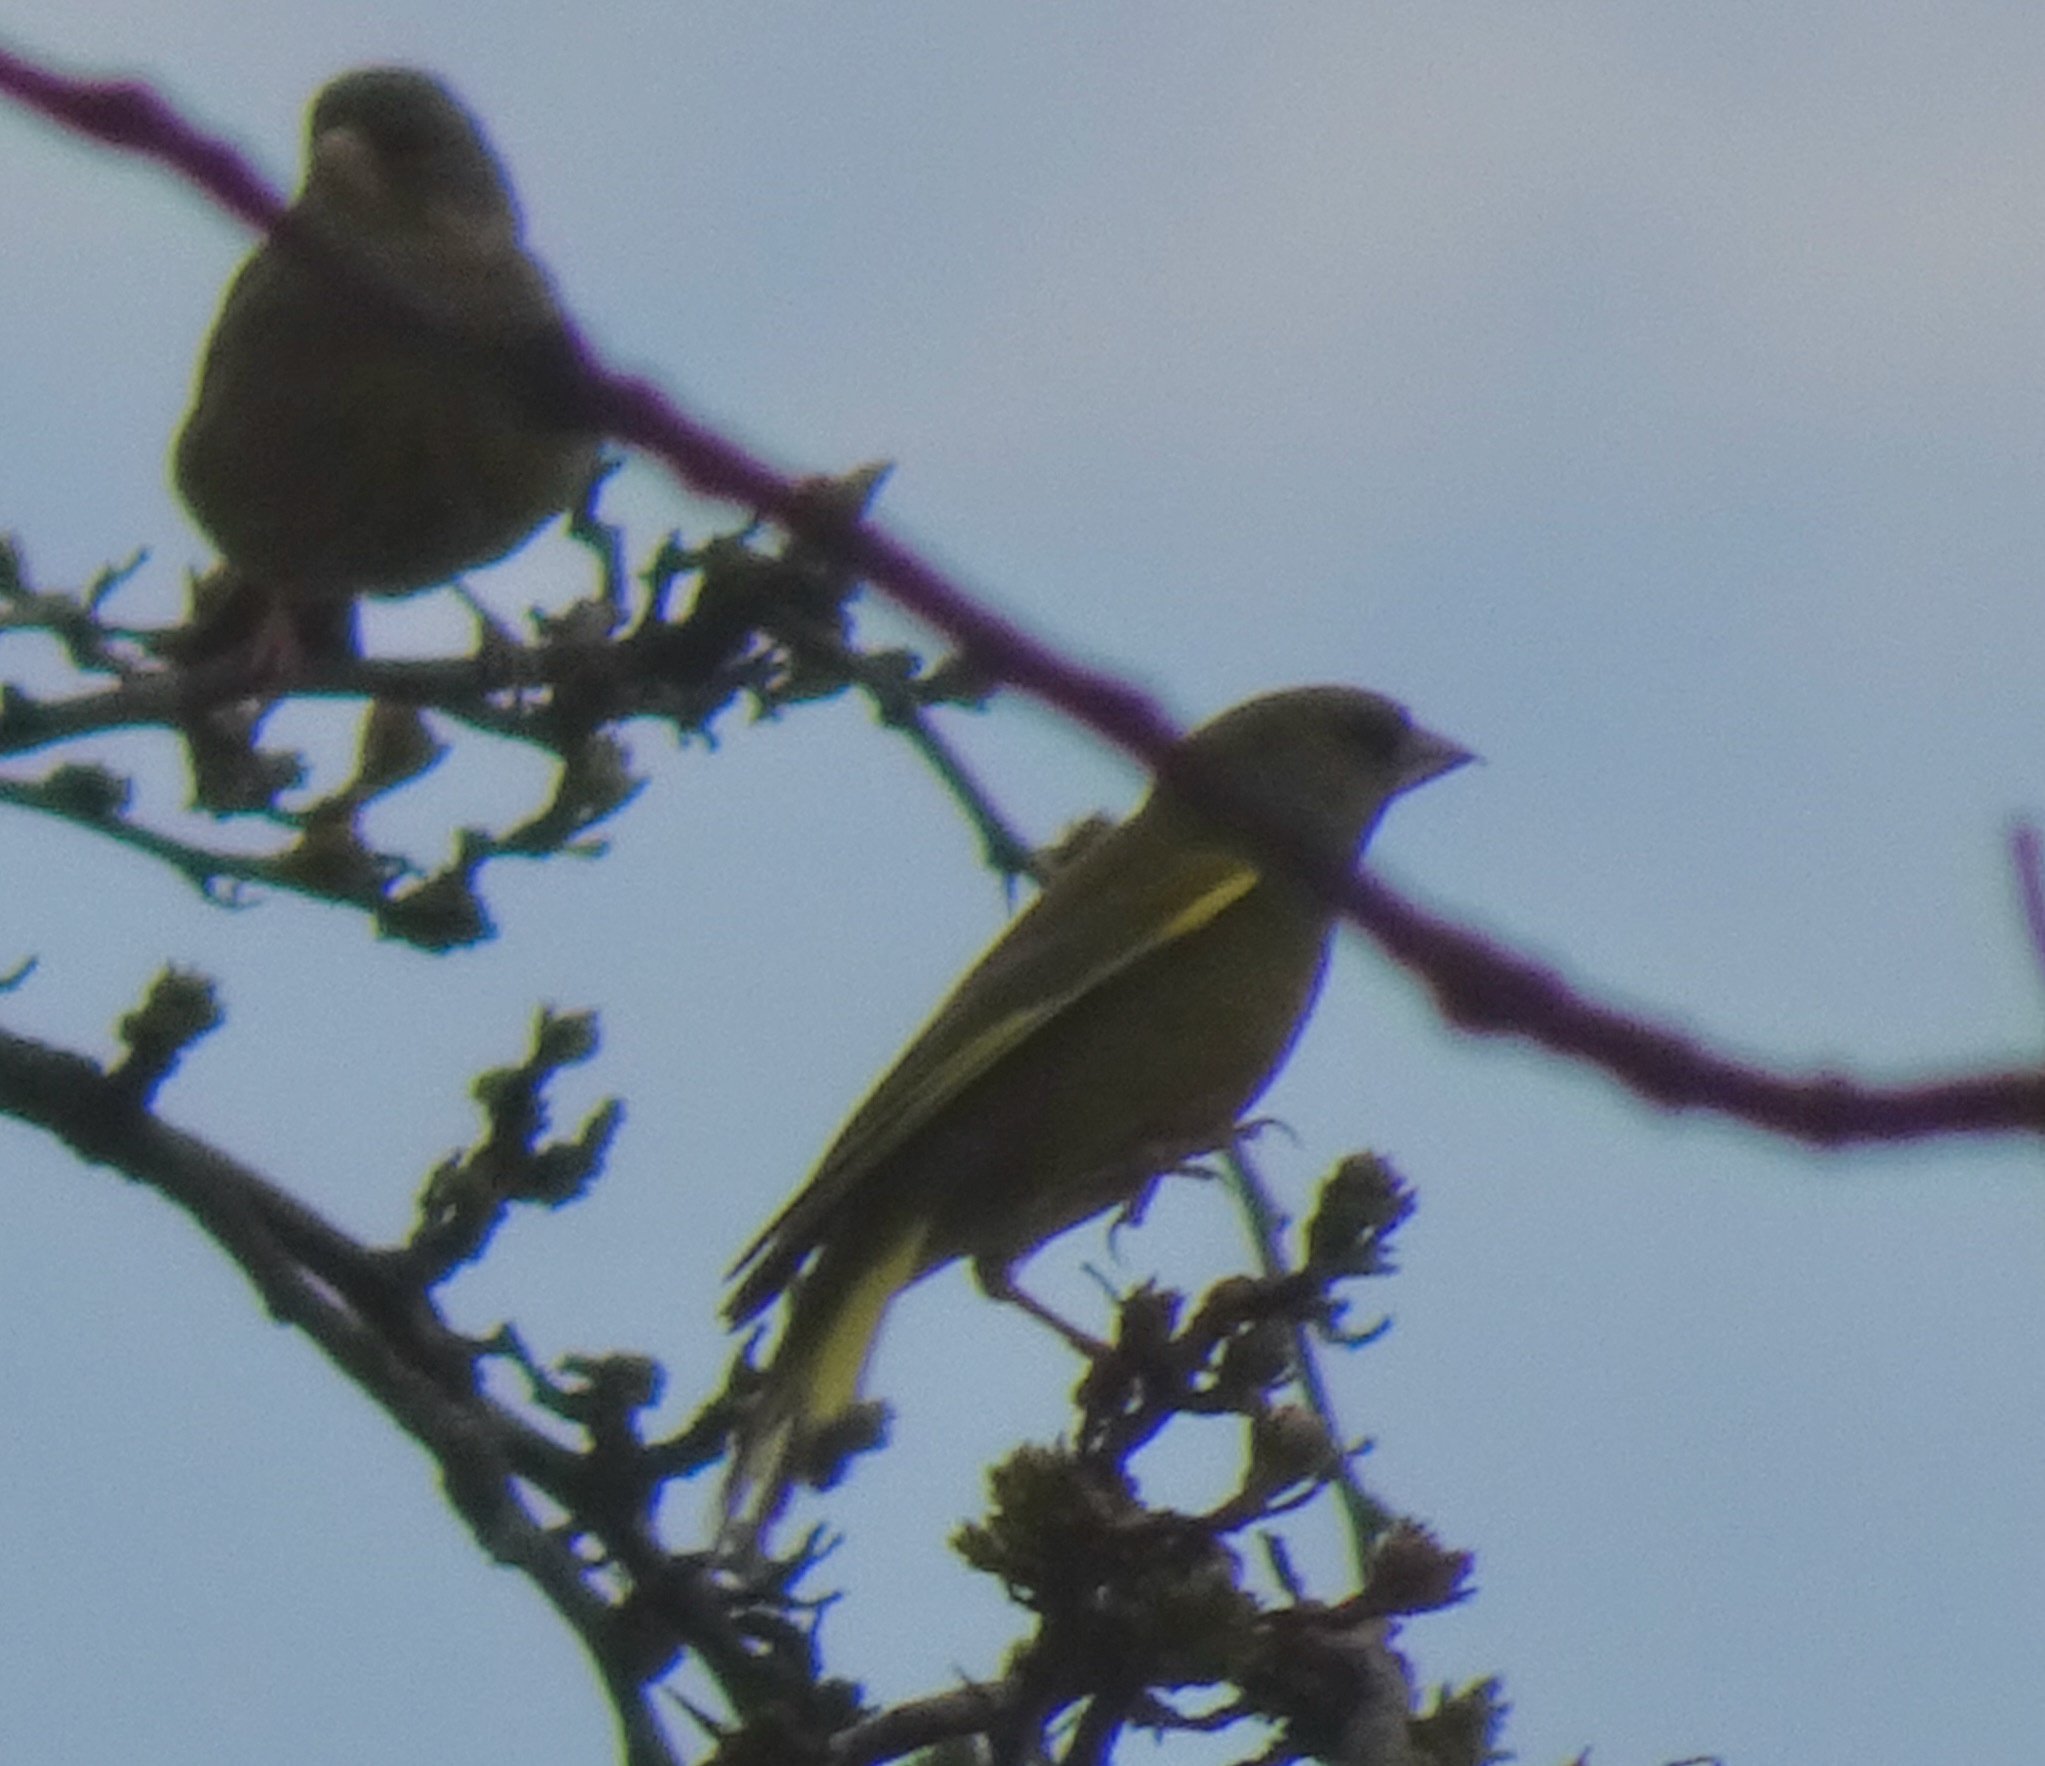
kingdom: Plantae
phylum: Tracheophyta
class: Liliopsida
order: Poales
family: Poaceae
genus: Chloris
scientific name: Chloris chloris
